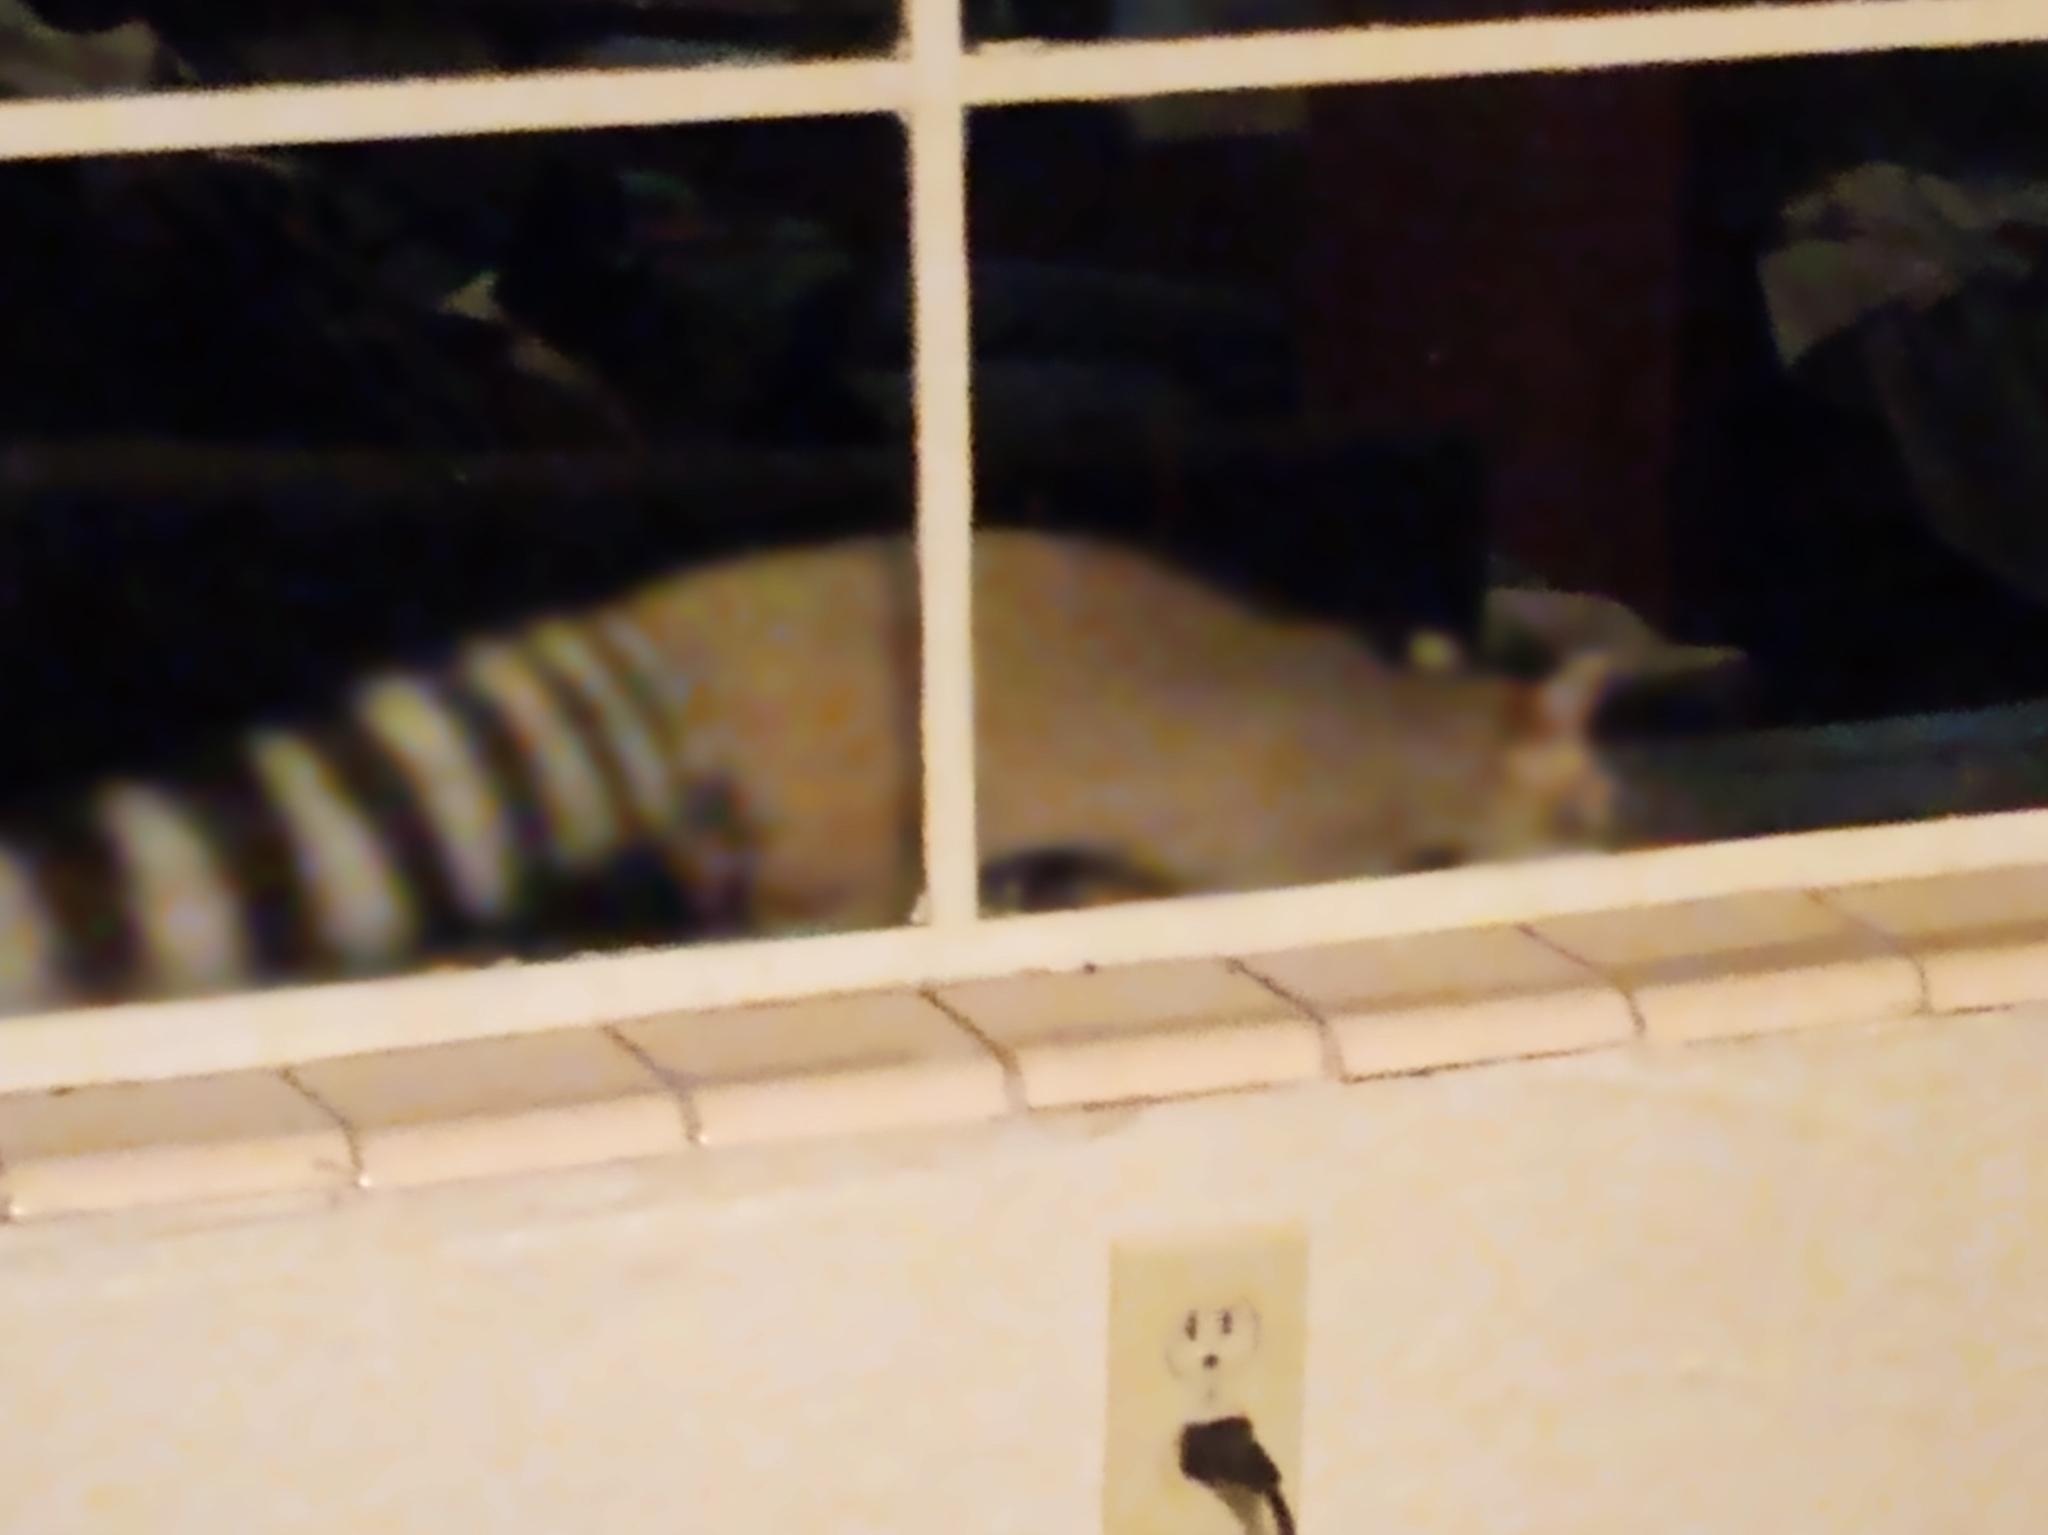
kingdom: Animalia
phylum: Chordata
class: Mammalia
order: Carnivora
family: Procyonidae
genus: Bassariscus
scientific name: Bassariscus astutus
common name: Ringtail
